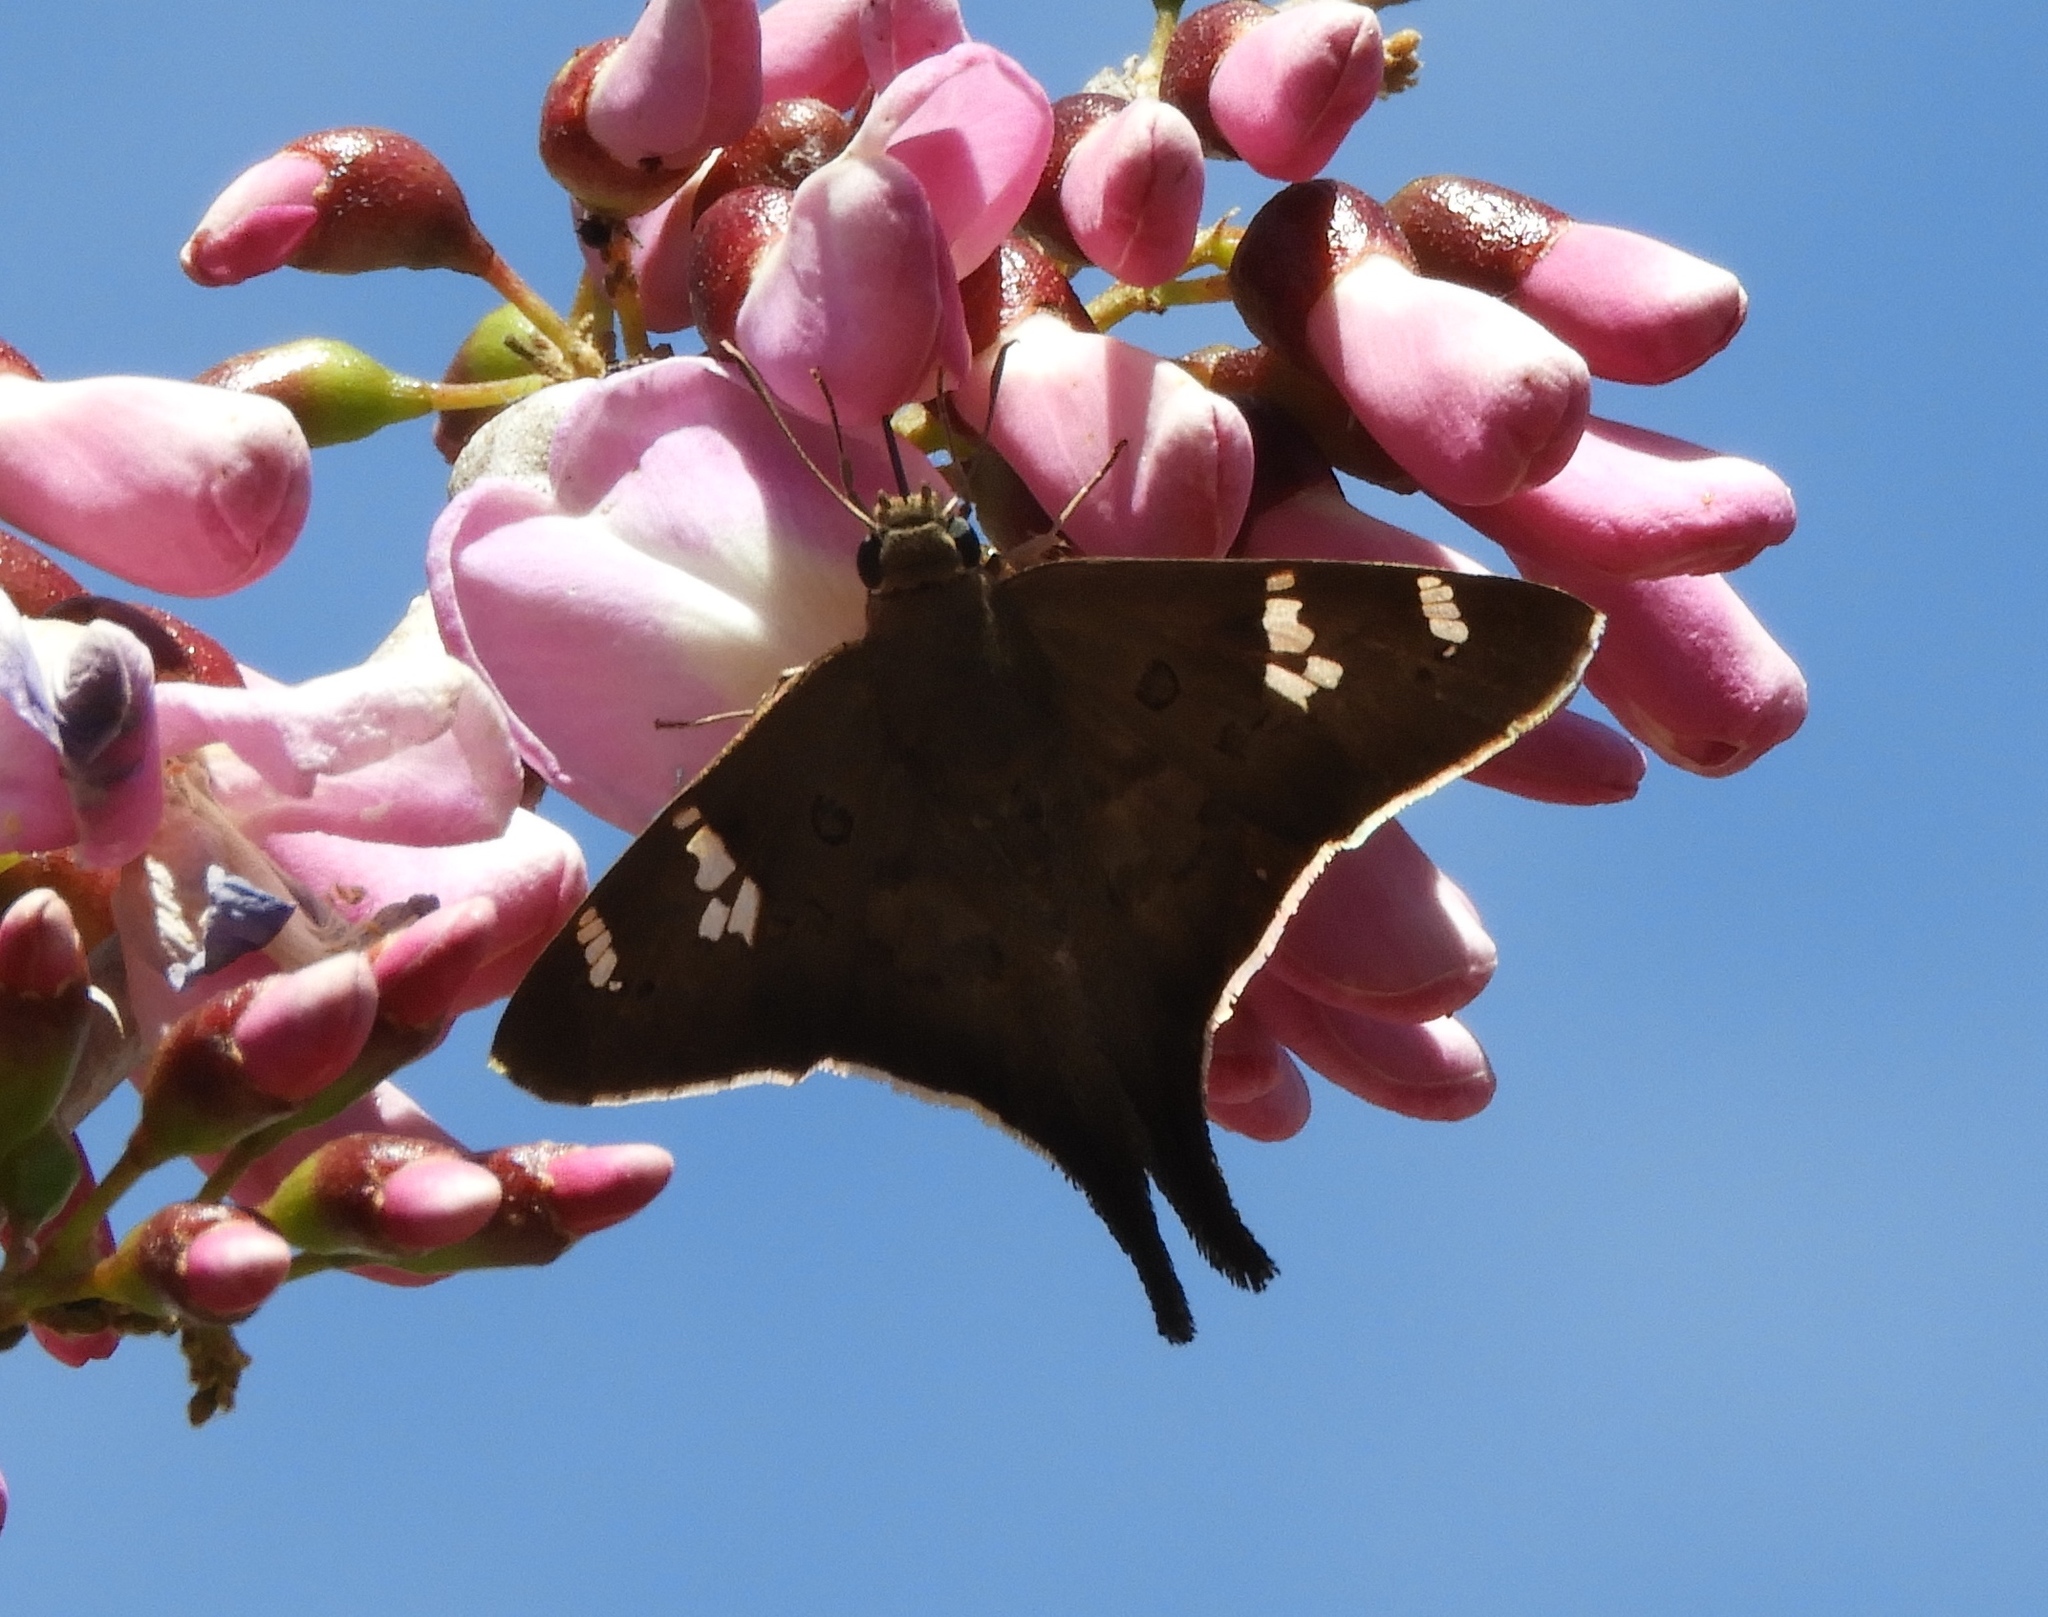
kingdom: Animalia
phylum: Arthropoda
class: Insecta
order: Lepidoptera
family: Hesperiidae
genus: Ectomis
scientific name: Ectomis
